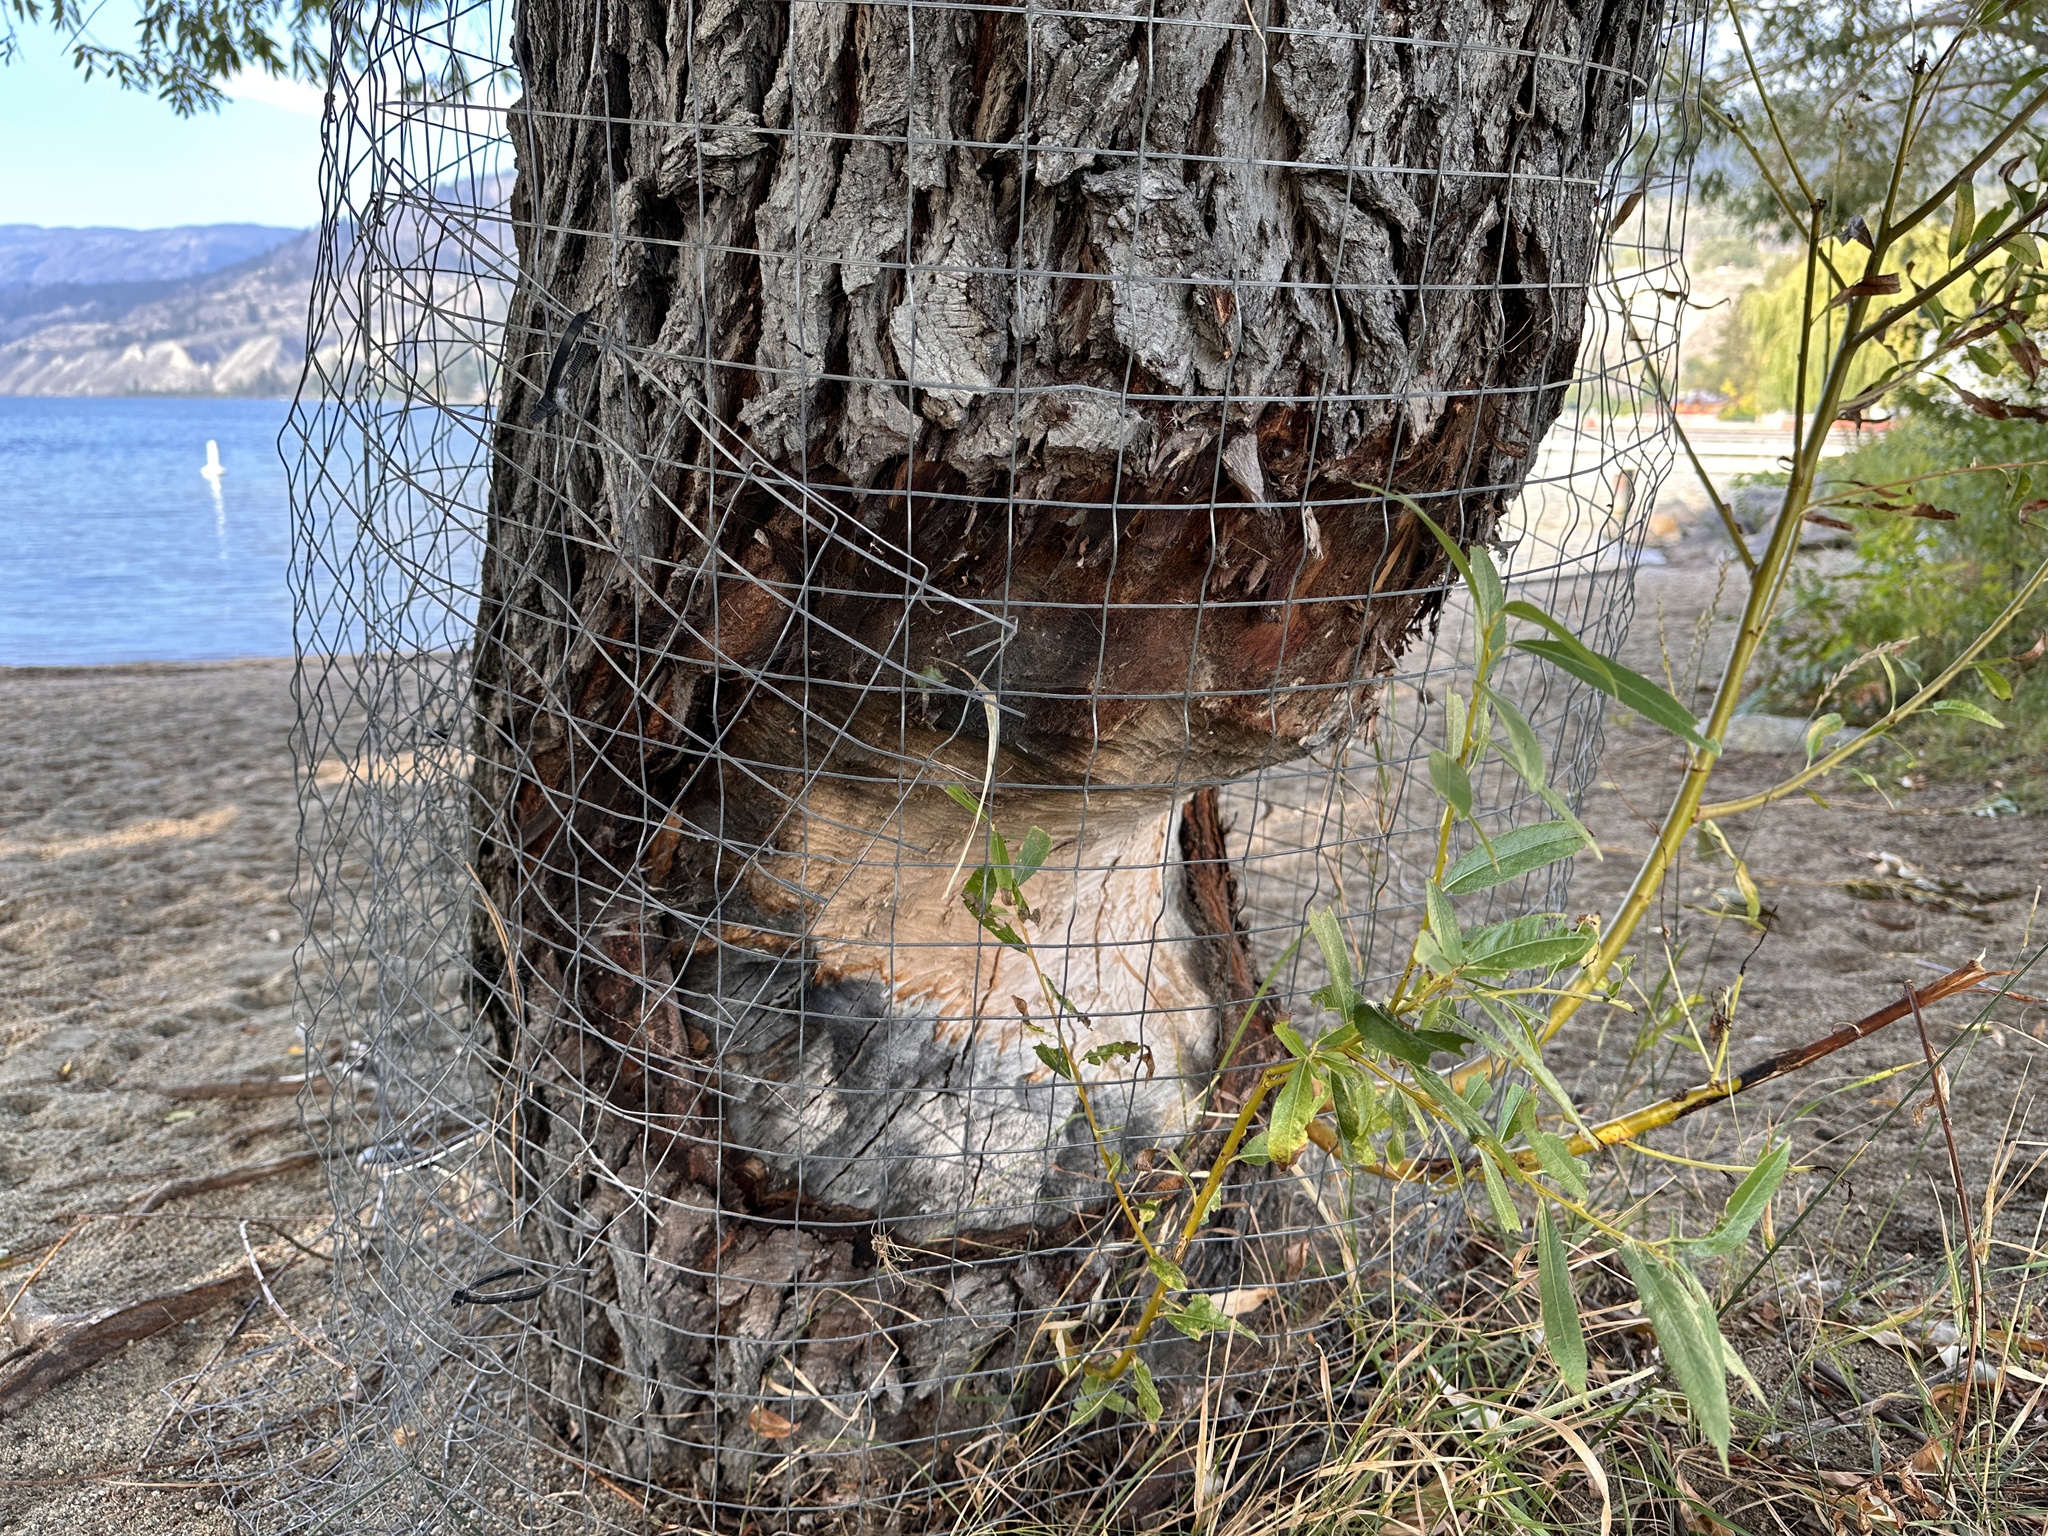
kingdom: Animalia
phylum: Chordata
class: Mammalia
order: Rodentia
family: Castoridae
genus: Castor
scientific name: Castor canadensis
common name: American beaver
